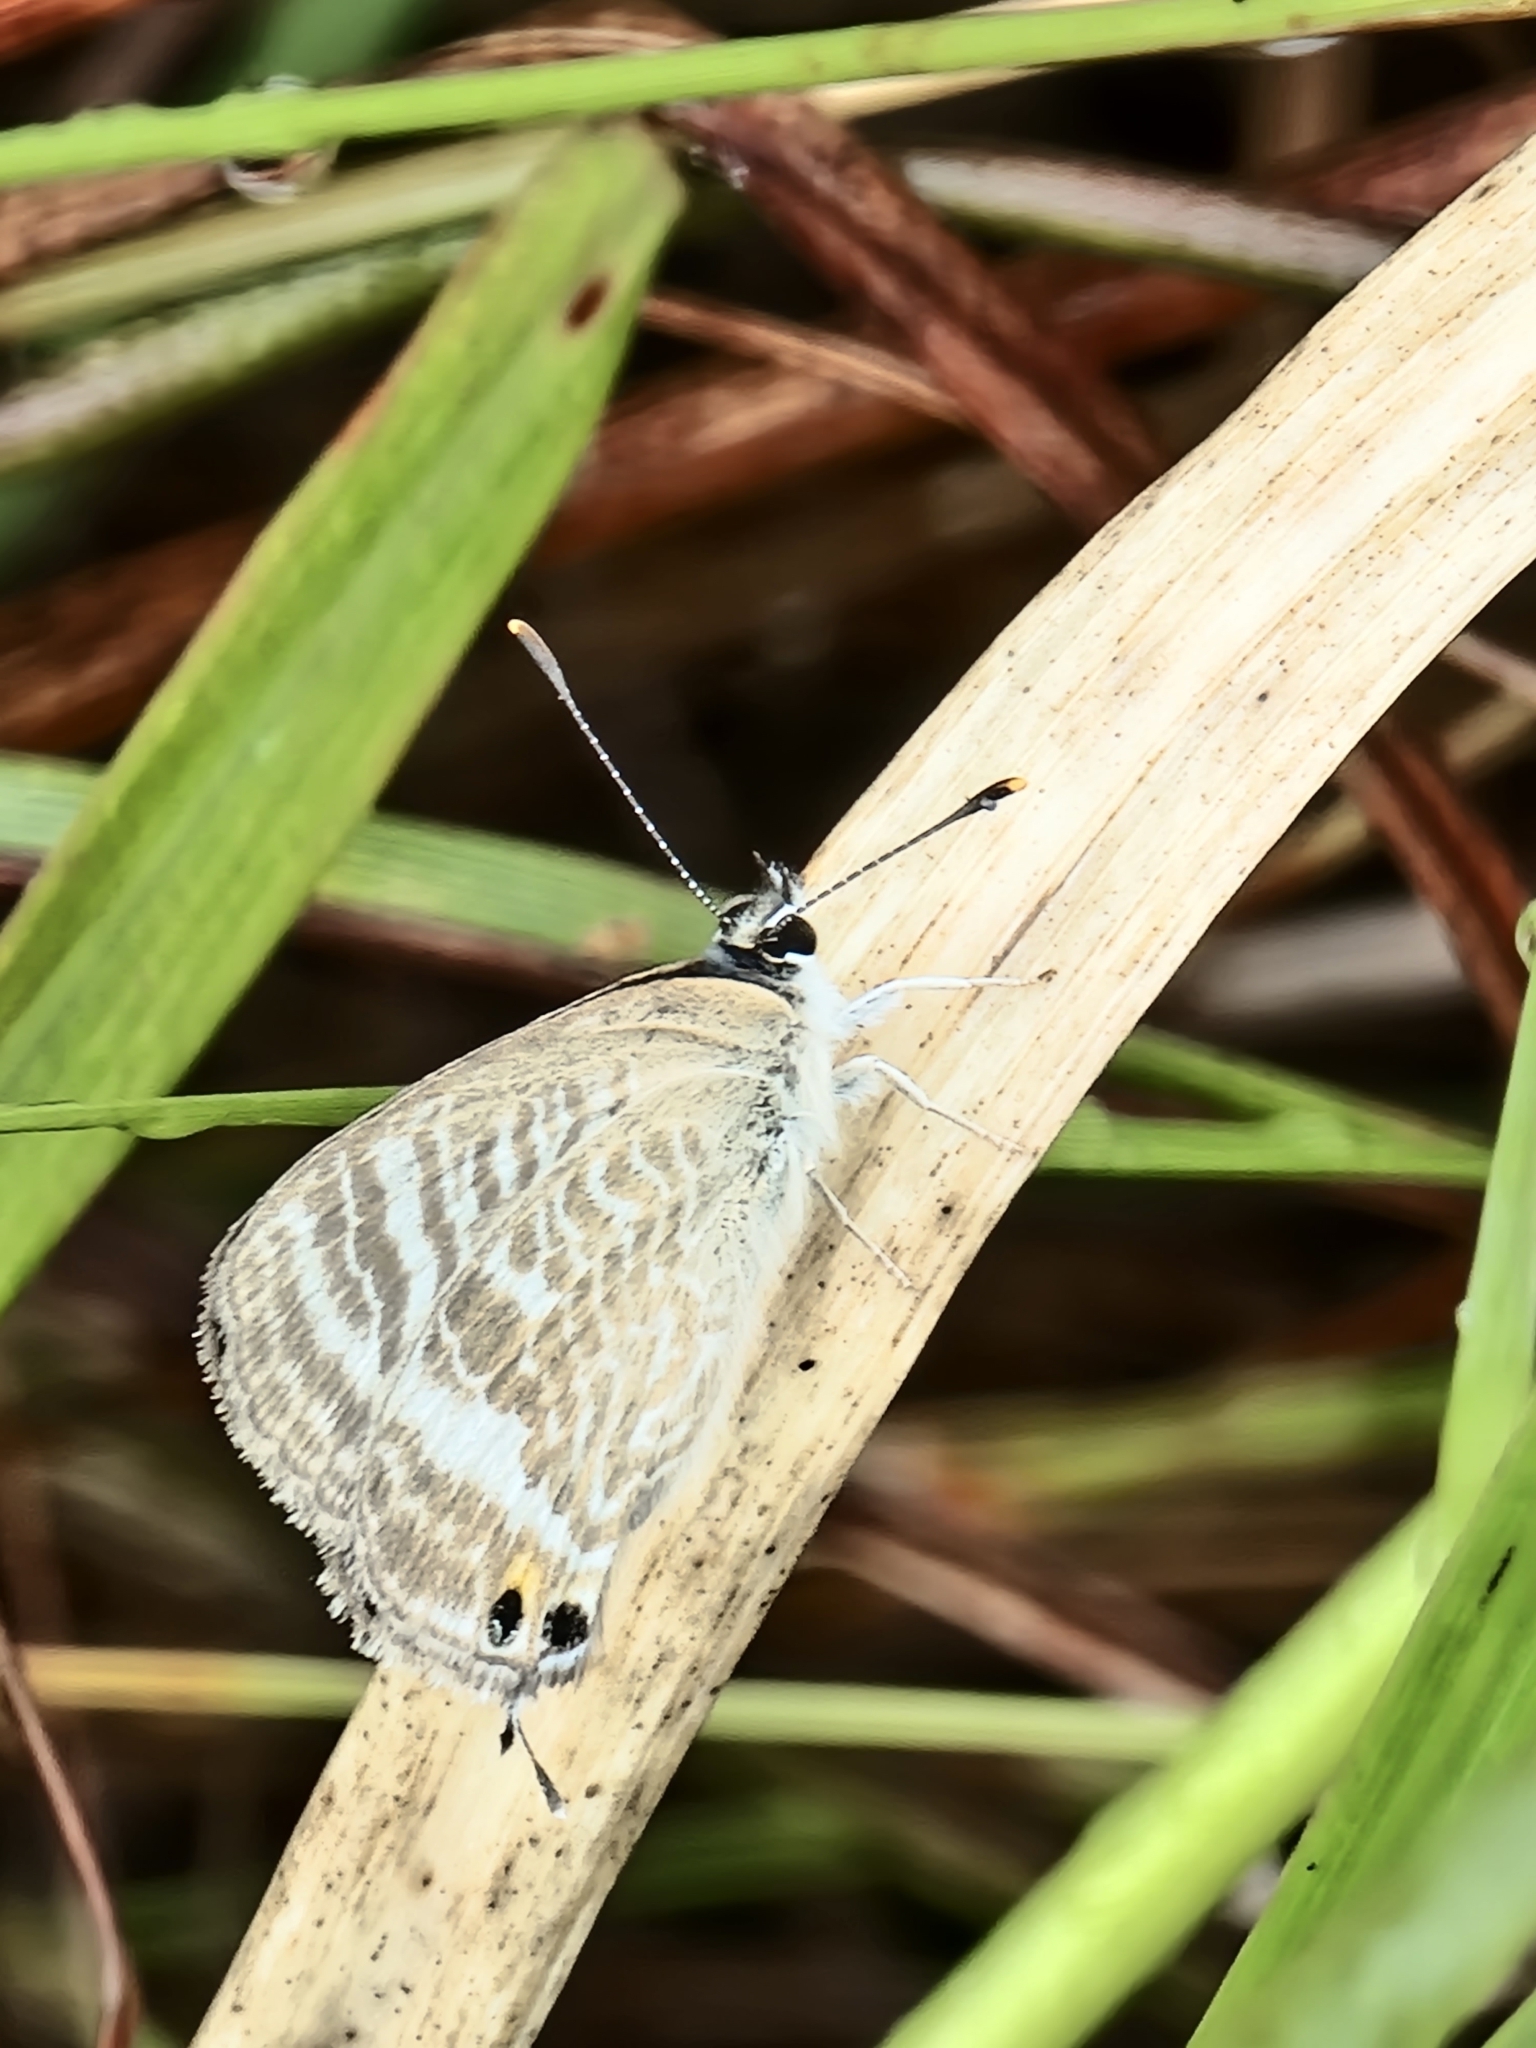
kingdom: Animalia
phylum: Arthropoda
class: Insecta
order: Lepidoptera
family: Lycaenidae
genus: Lampides
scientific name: Lampides boeticus
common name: Long-tailed blue
